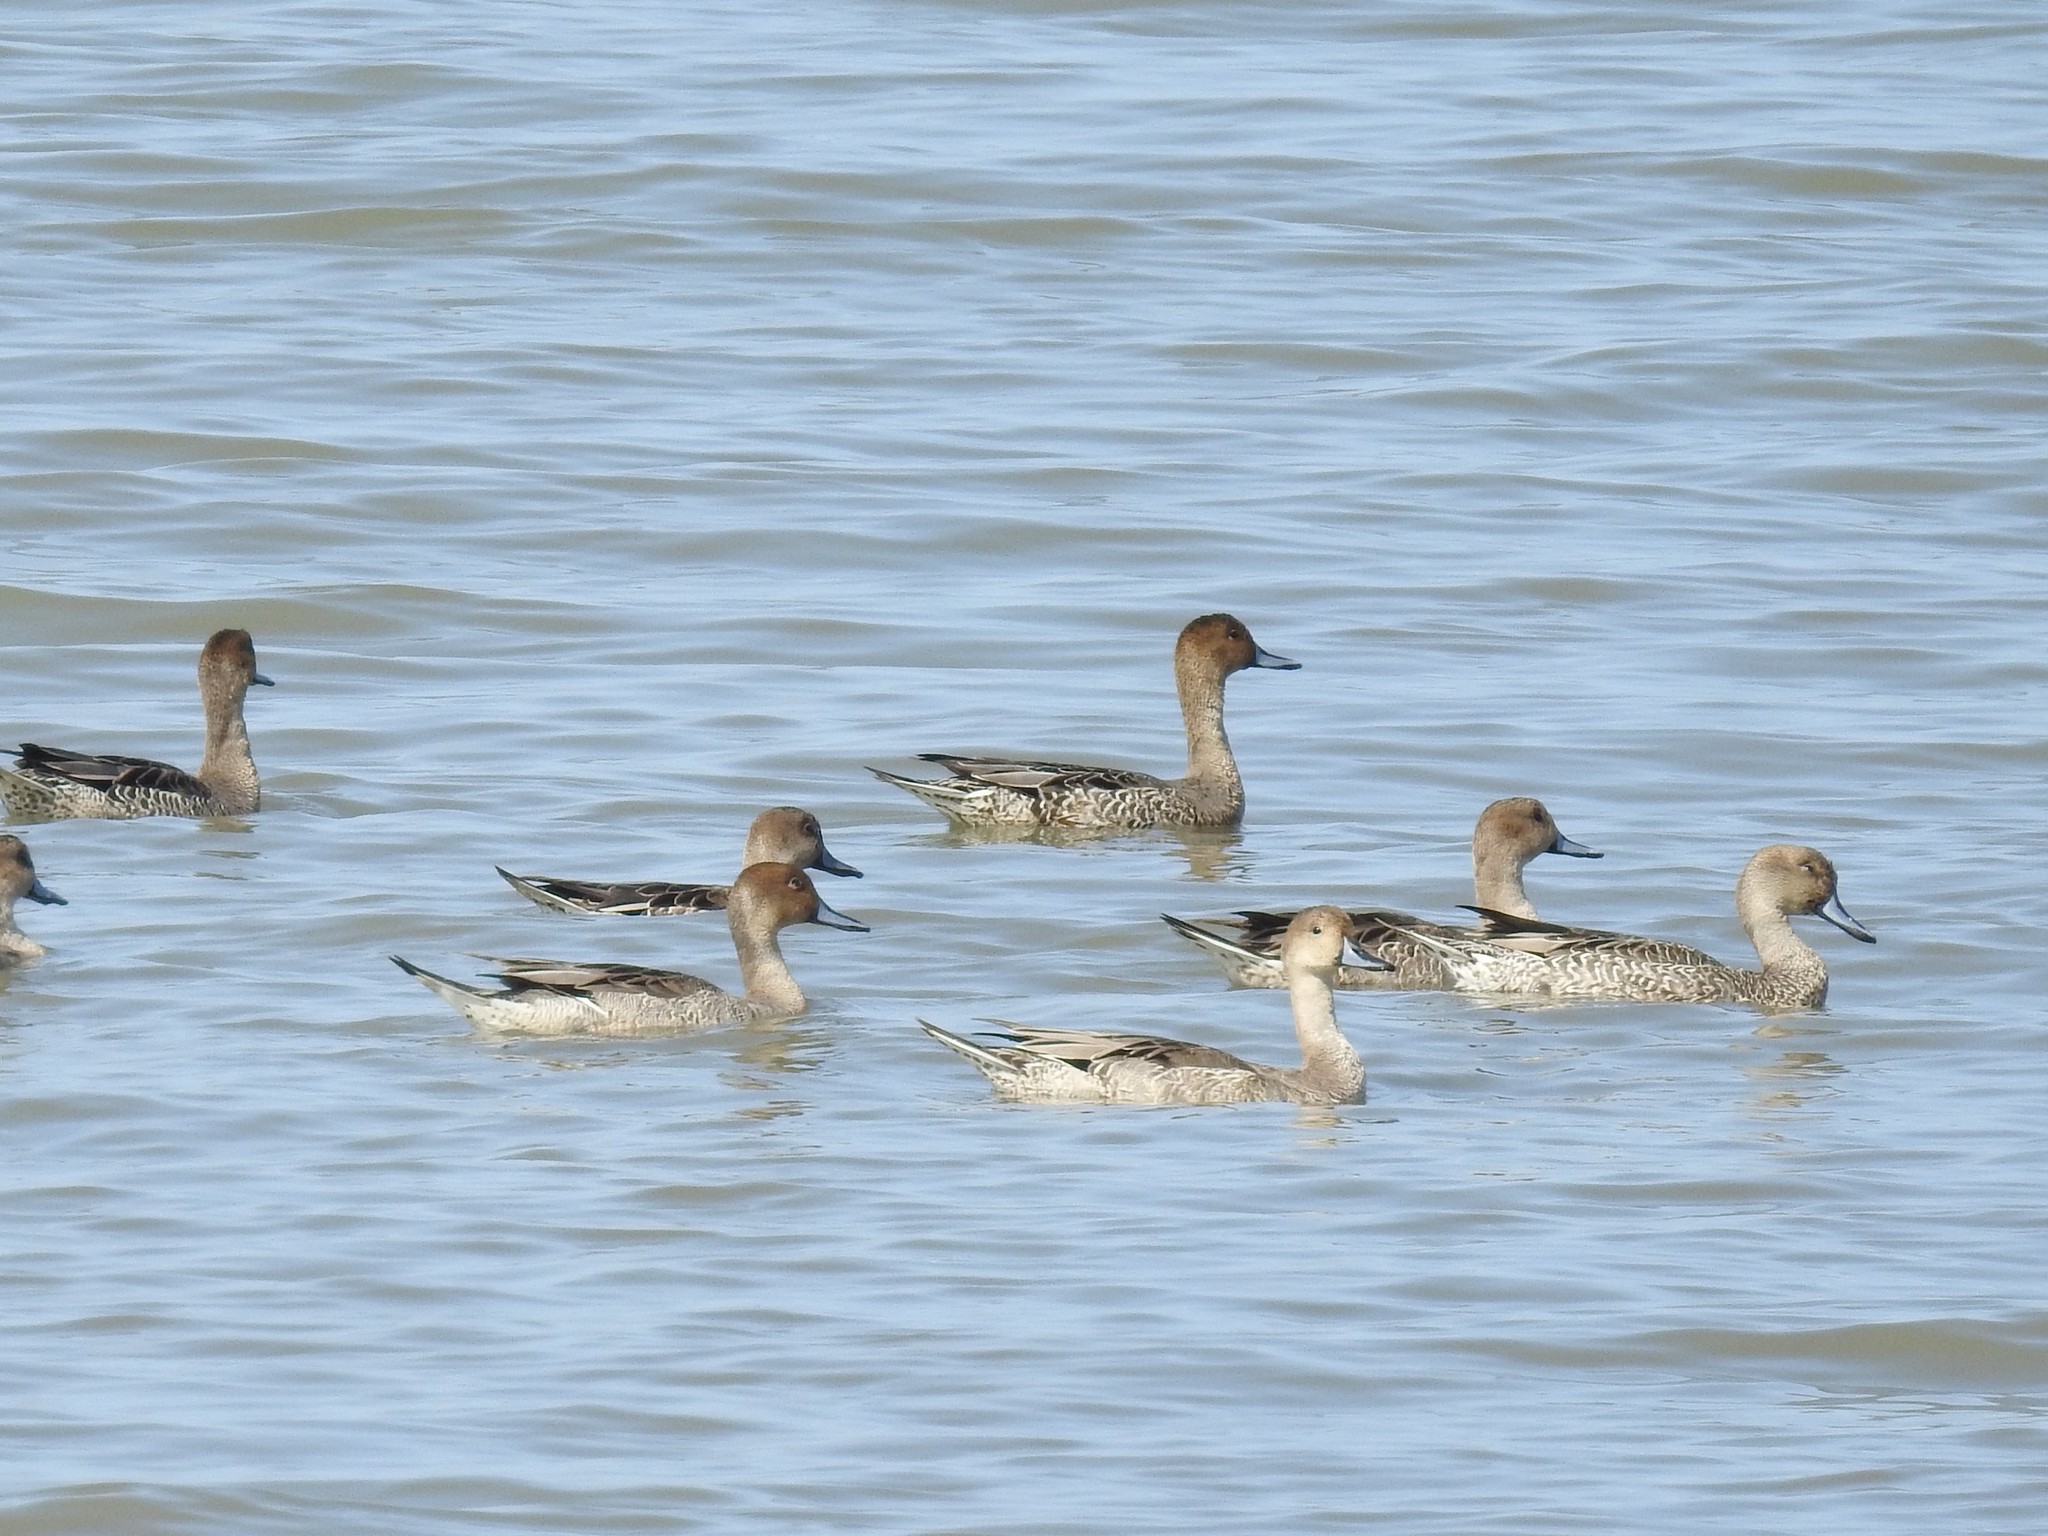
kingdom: Animalia
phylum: Chordata
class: Aves
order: Anseriformes
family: Anatidae
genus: Anas
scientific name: Anas acuta
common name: Northern pintail
